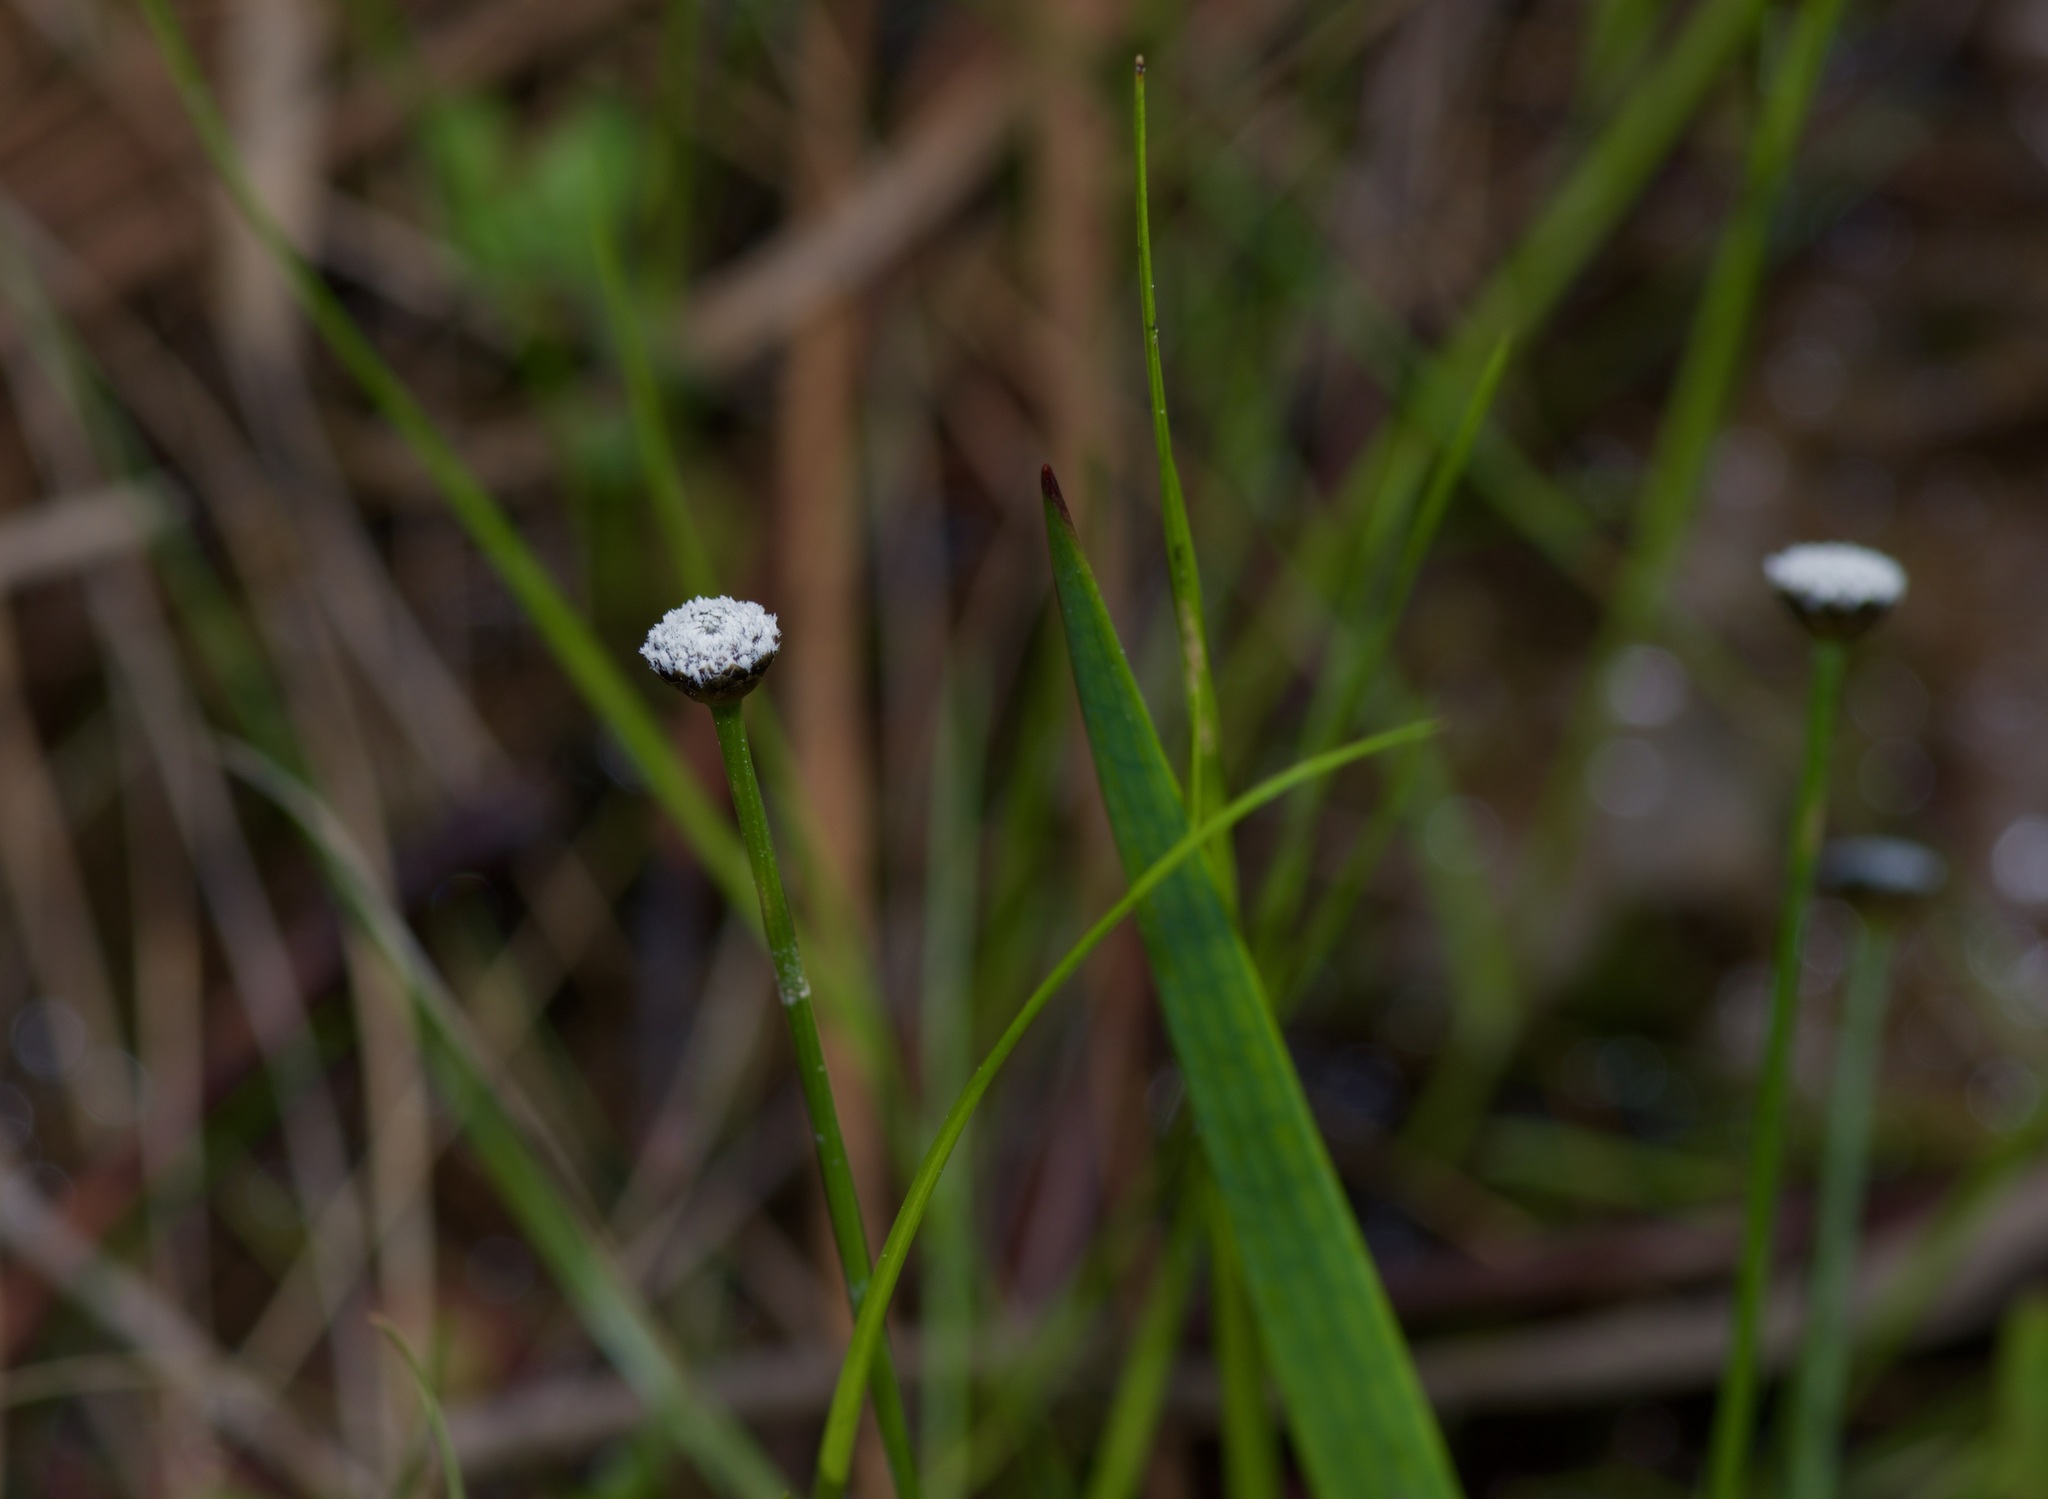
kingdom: Plantae
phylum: Tracheophyta
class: Liliopsida
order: Poales
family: Eriocaulaceae
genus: Eriocaulon
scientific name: Eriocaulon compressum
